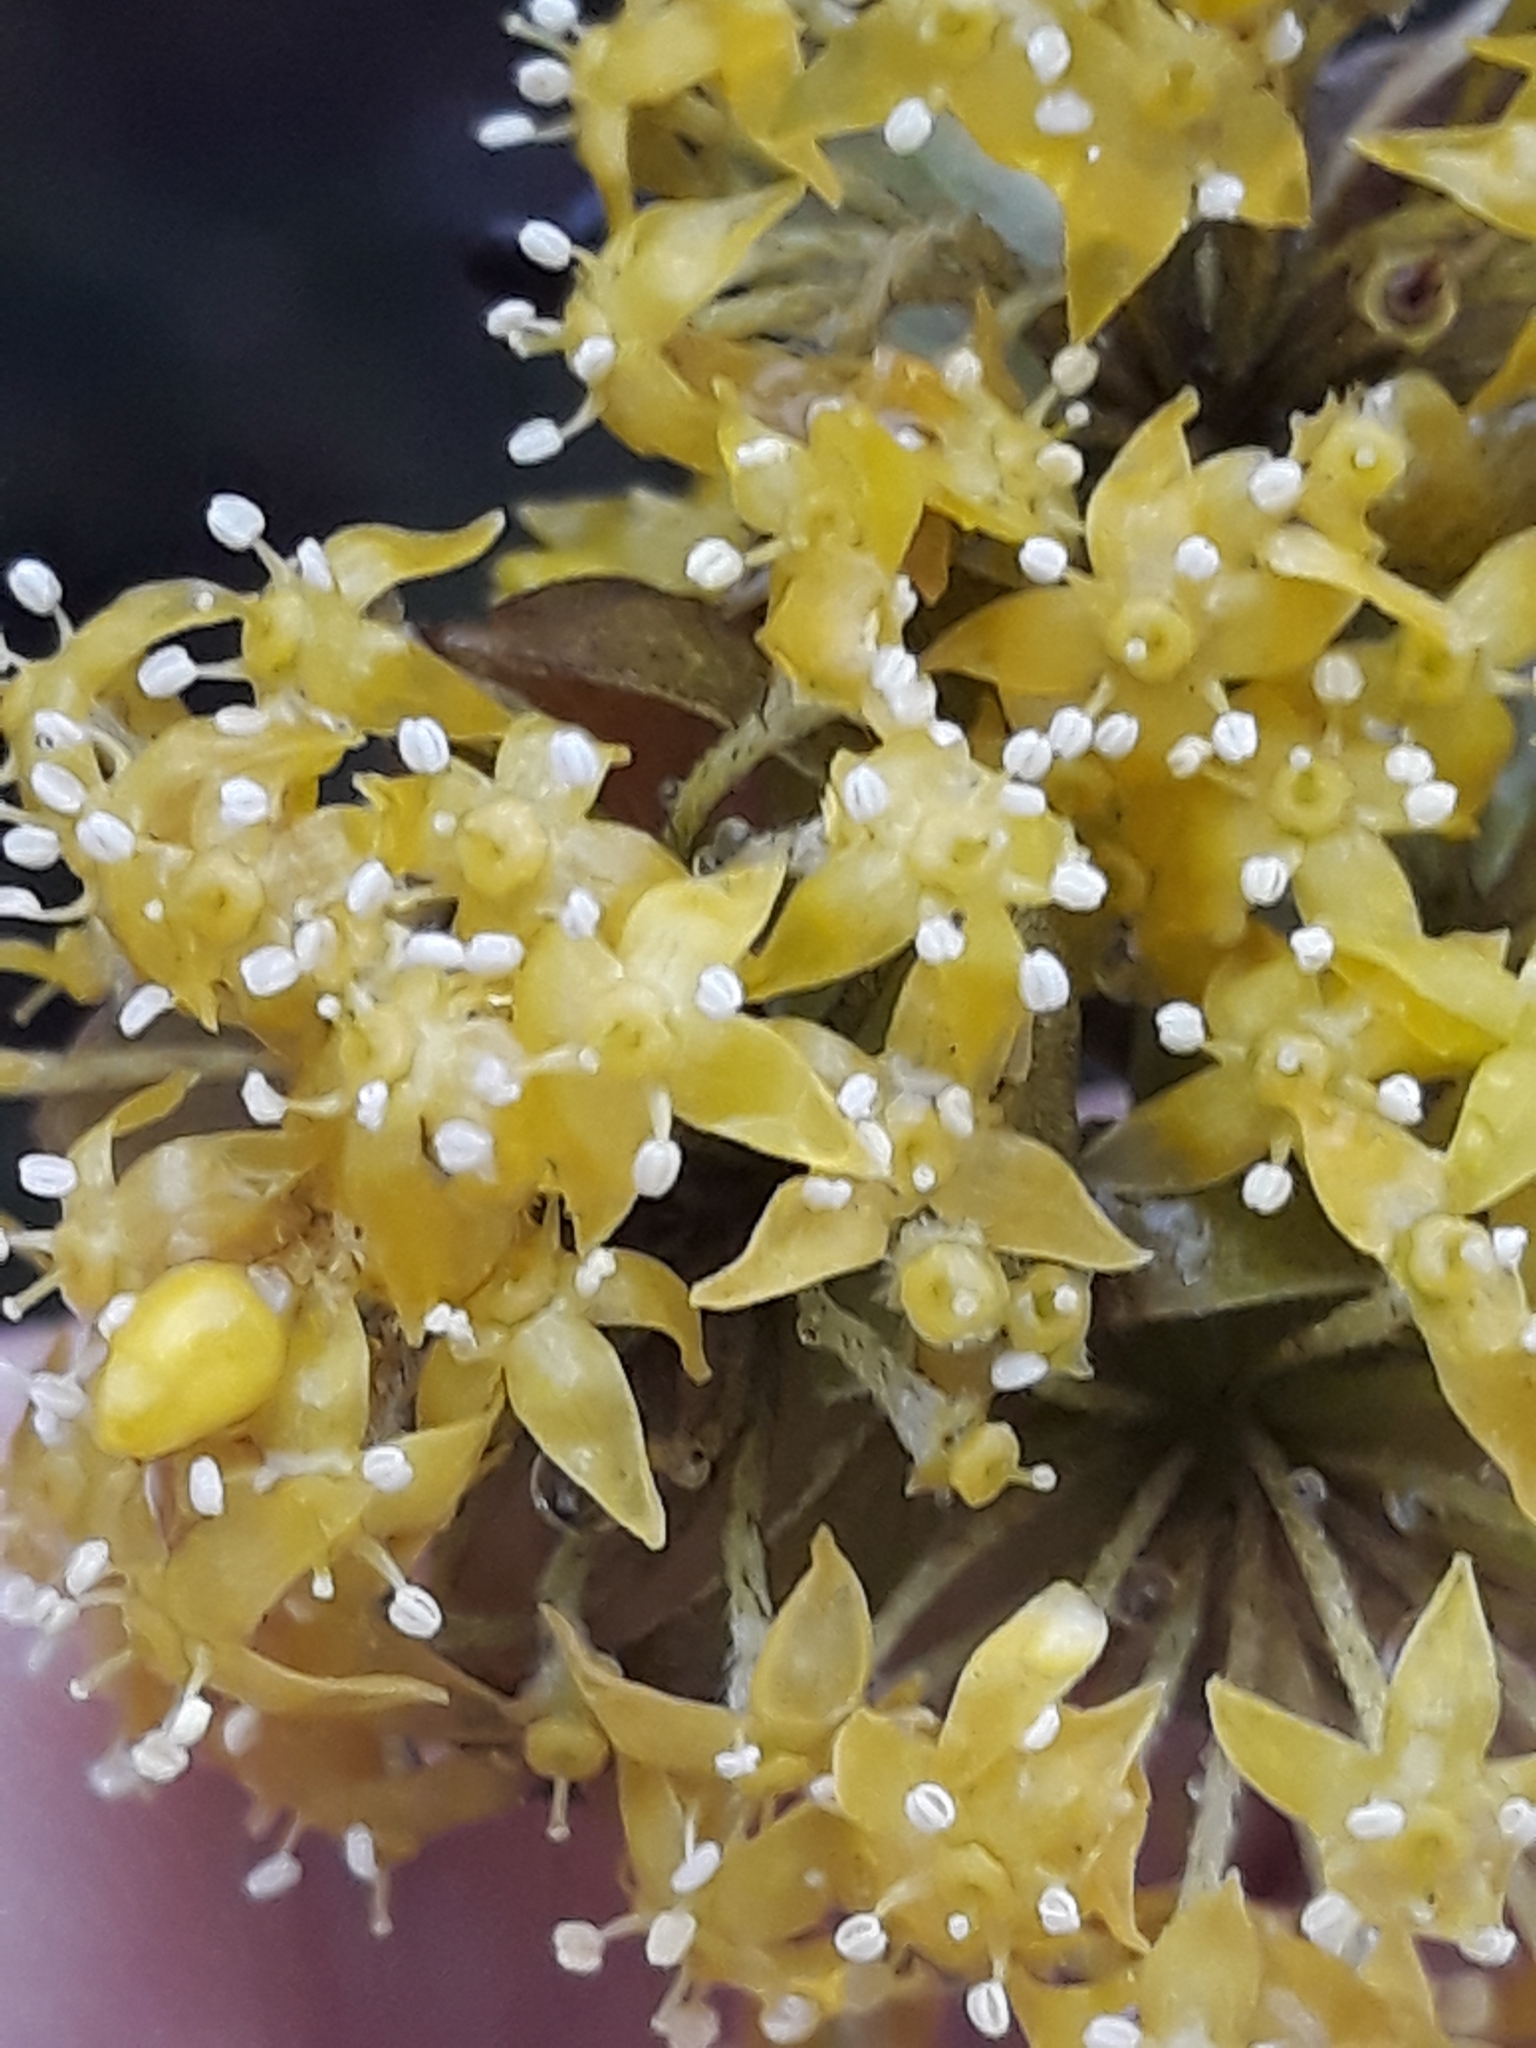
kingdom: Plantae
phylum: Tracheophyta
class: Magnoliopsida
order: Cornales
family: Cornaceae
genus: Cornus
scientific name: Cornus mas
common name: Cornelian-cherry
